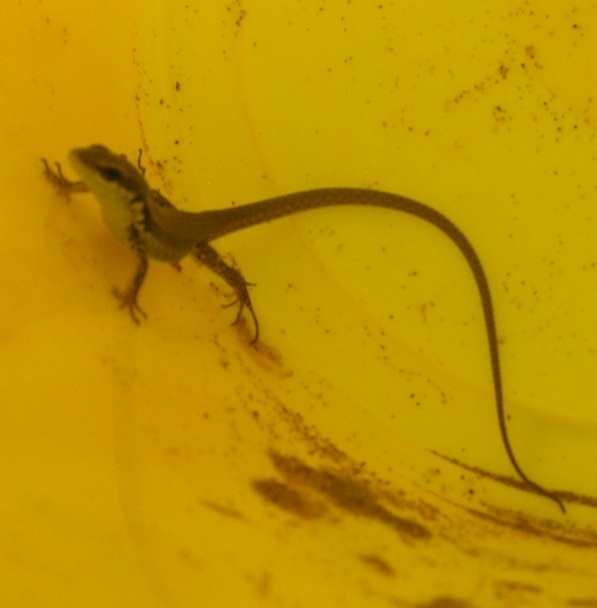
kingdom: Animalia
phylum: Chordata
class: Squamata
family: Lacertidae
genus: Phoenicolacerta
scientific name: Phoenicolacerta laevis
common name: Lebanon lizard
